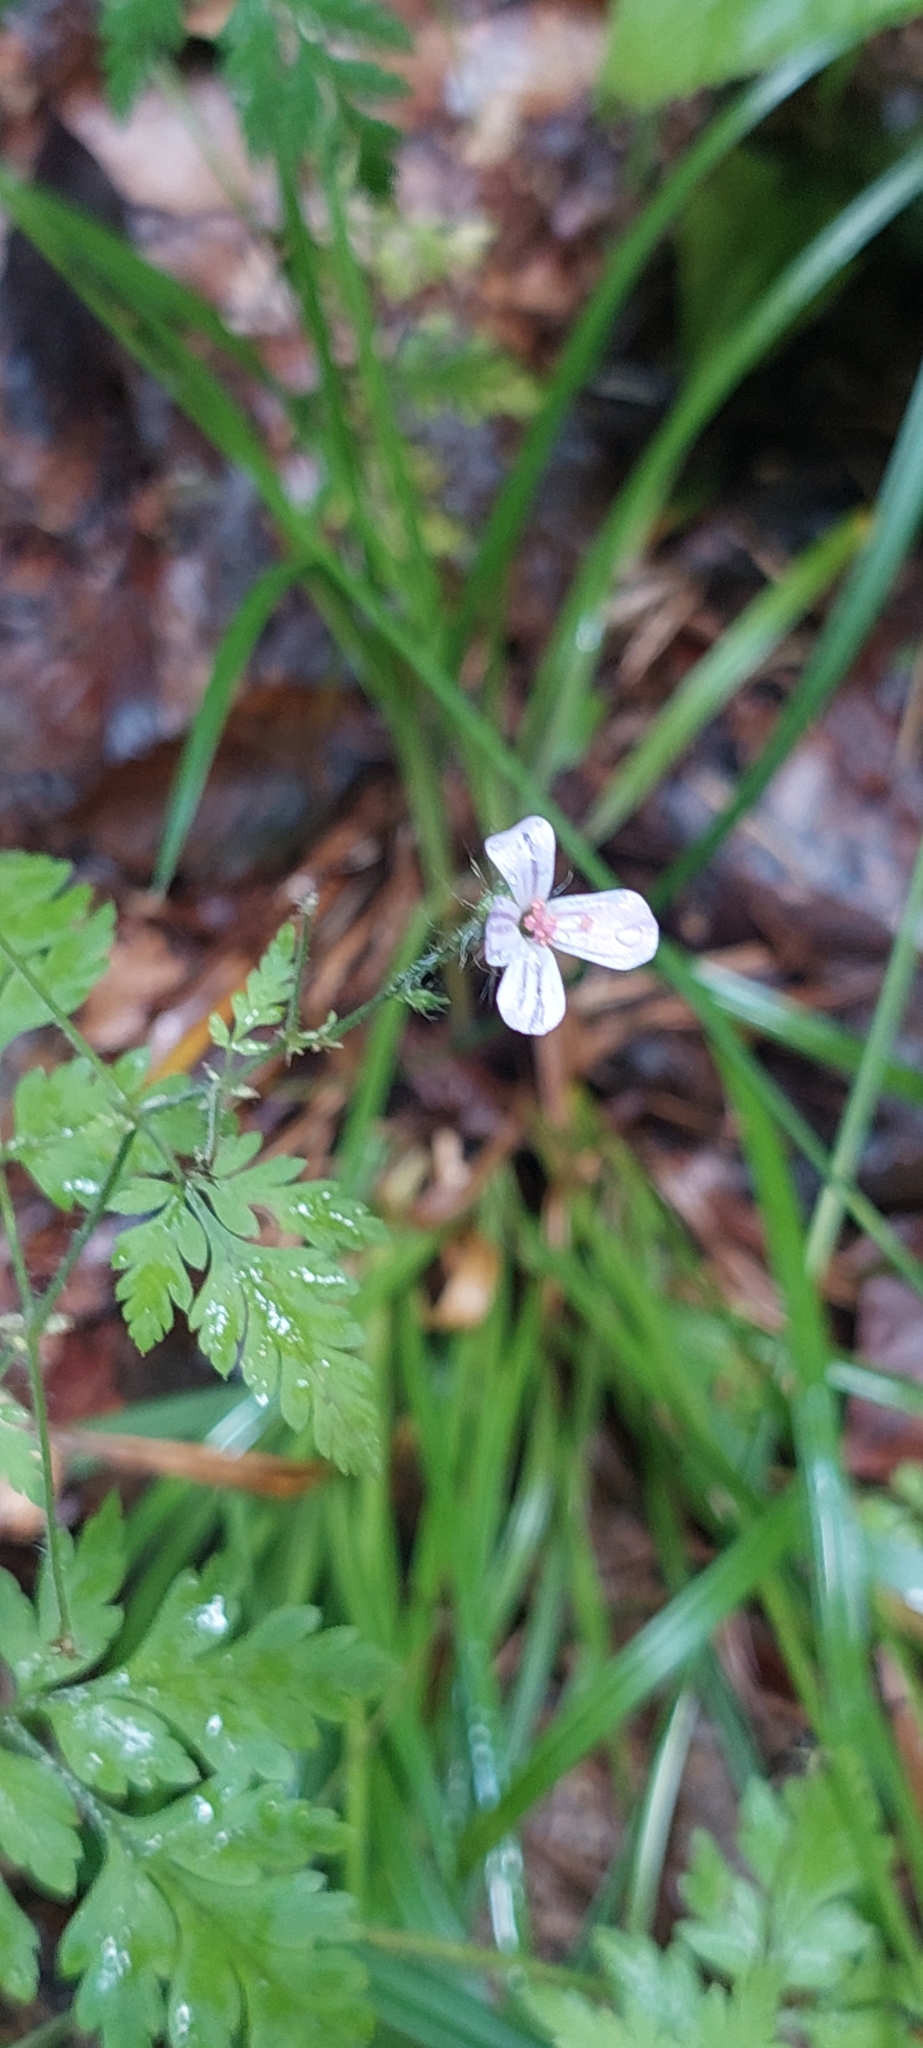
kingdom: Plantae
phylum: Tracheophyta
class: Magnoliopsida
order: Geraniales
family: Geraniaceae
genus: Geranium
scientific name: Geranium robertianum
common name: Herb-robert
